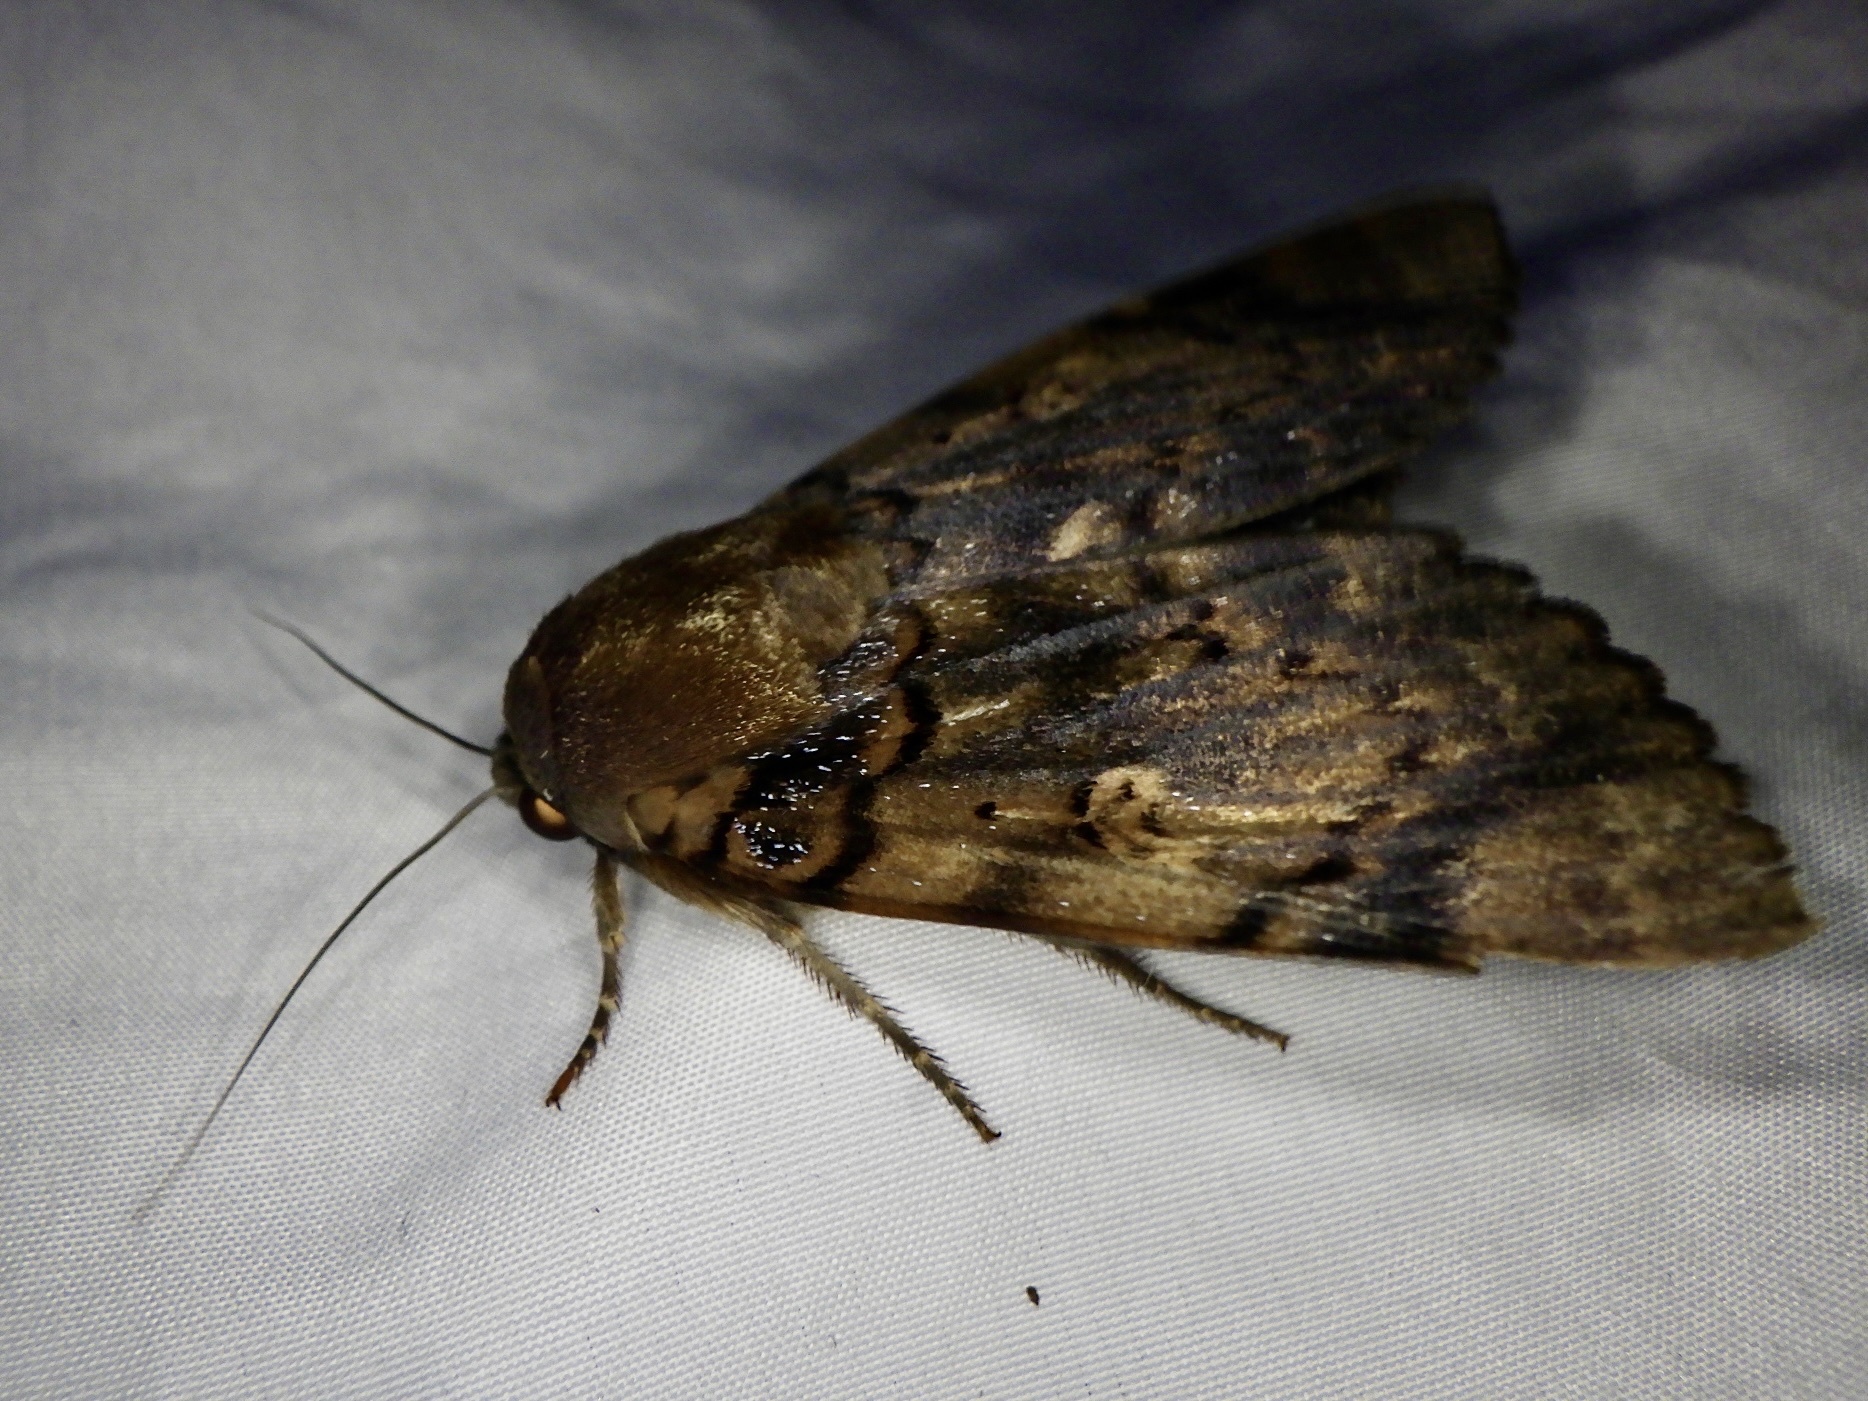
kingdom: Animalia
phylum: Arthropoda
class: Insecta
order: Lepidoptera
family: Erebidae
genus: Arcte
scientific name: Arcte coerula
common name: Ramie moth
